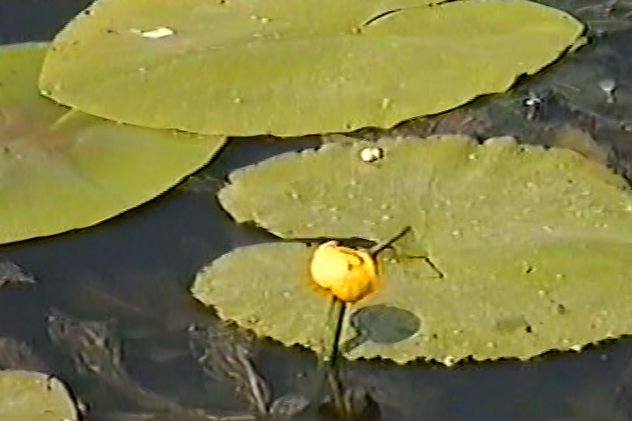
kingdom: Plantae
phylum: Tracheophyta
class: Magnoliopsida
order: Nymphaeales
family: Nymphaeaceae
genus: Nuphar
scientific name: Nuphar lutea
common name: Yellow water-lily
